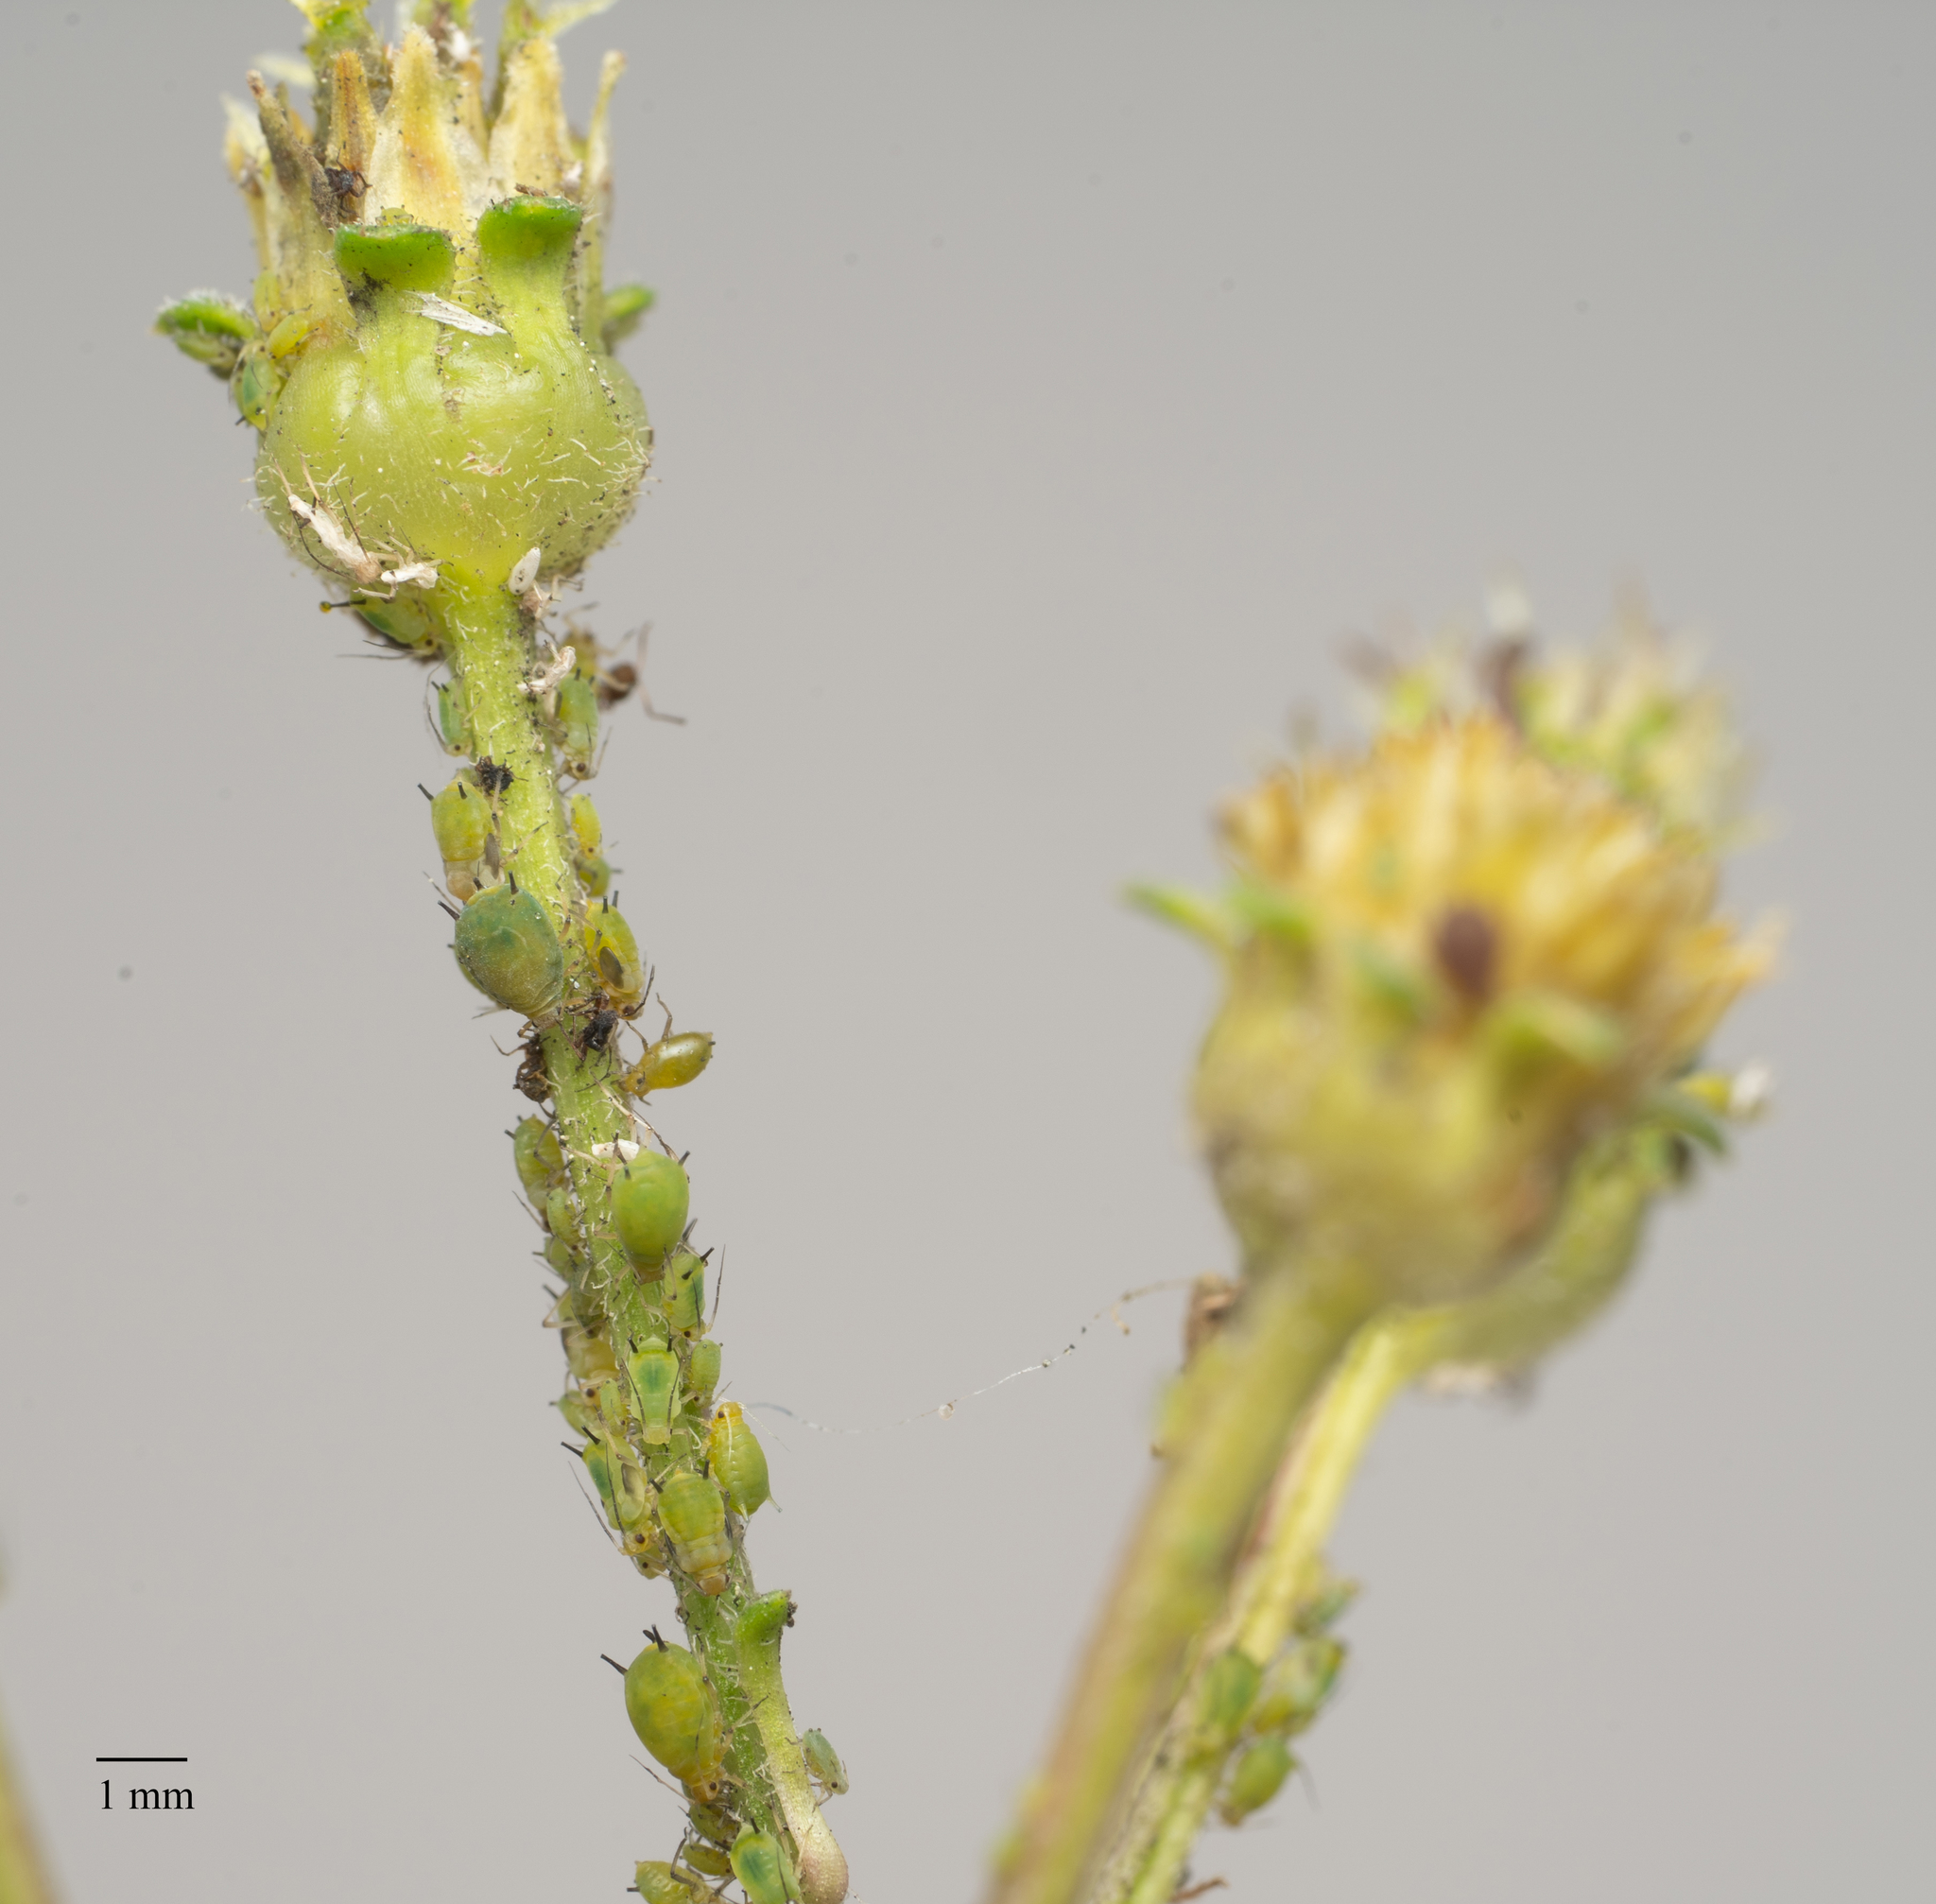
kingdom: Animalia
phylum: Arthropoda
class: Insecta
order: Hemiptera
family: Aphididae
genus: Aphis
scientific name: Aphis spiraecola
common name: Spirea aphid
